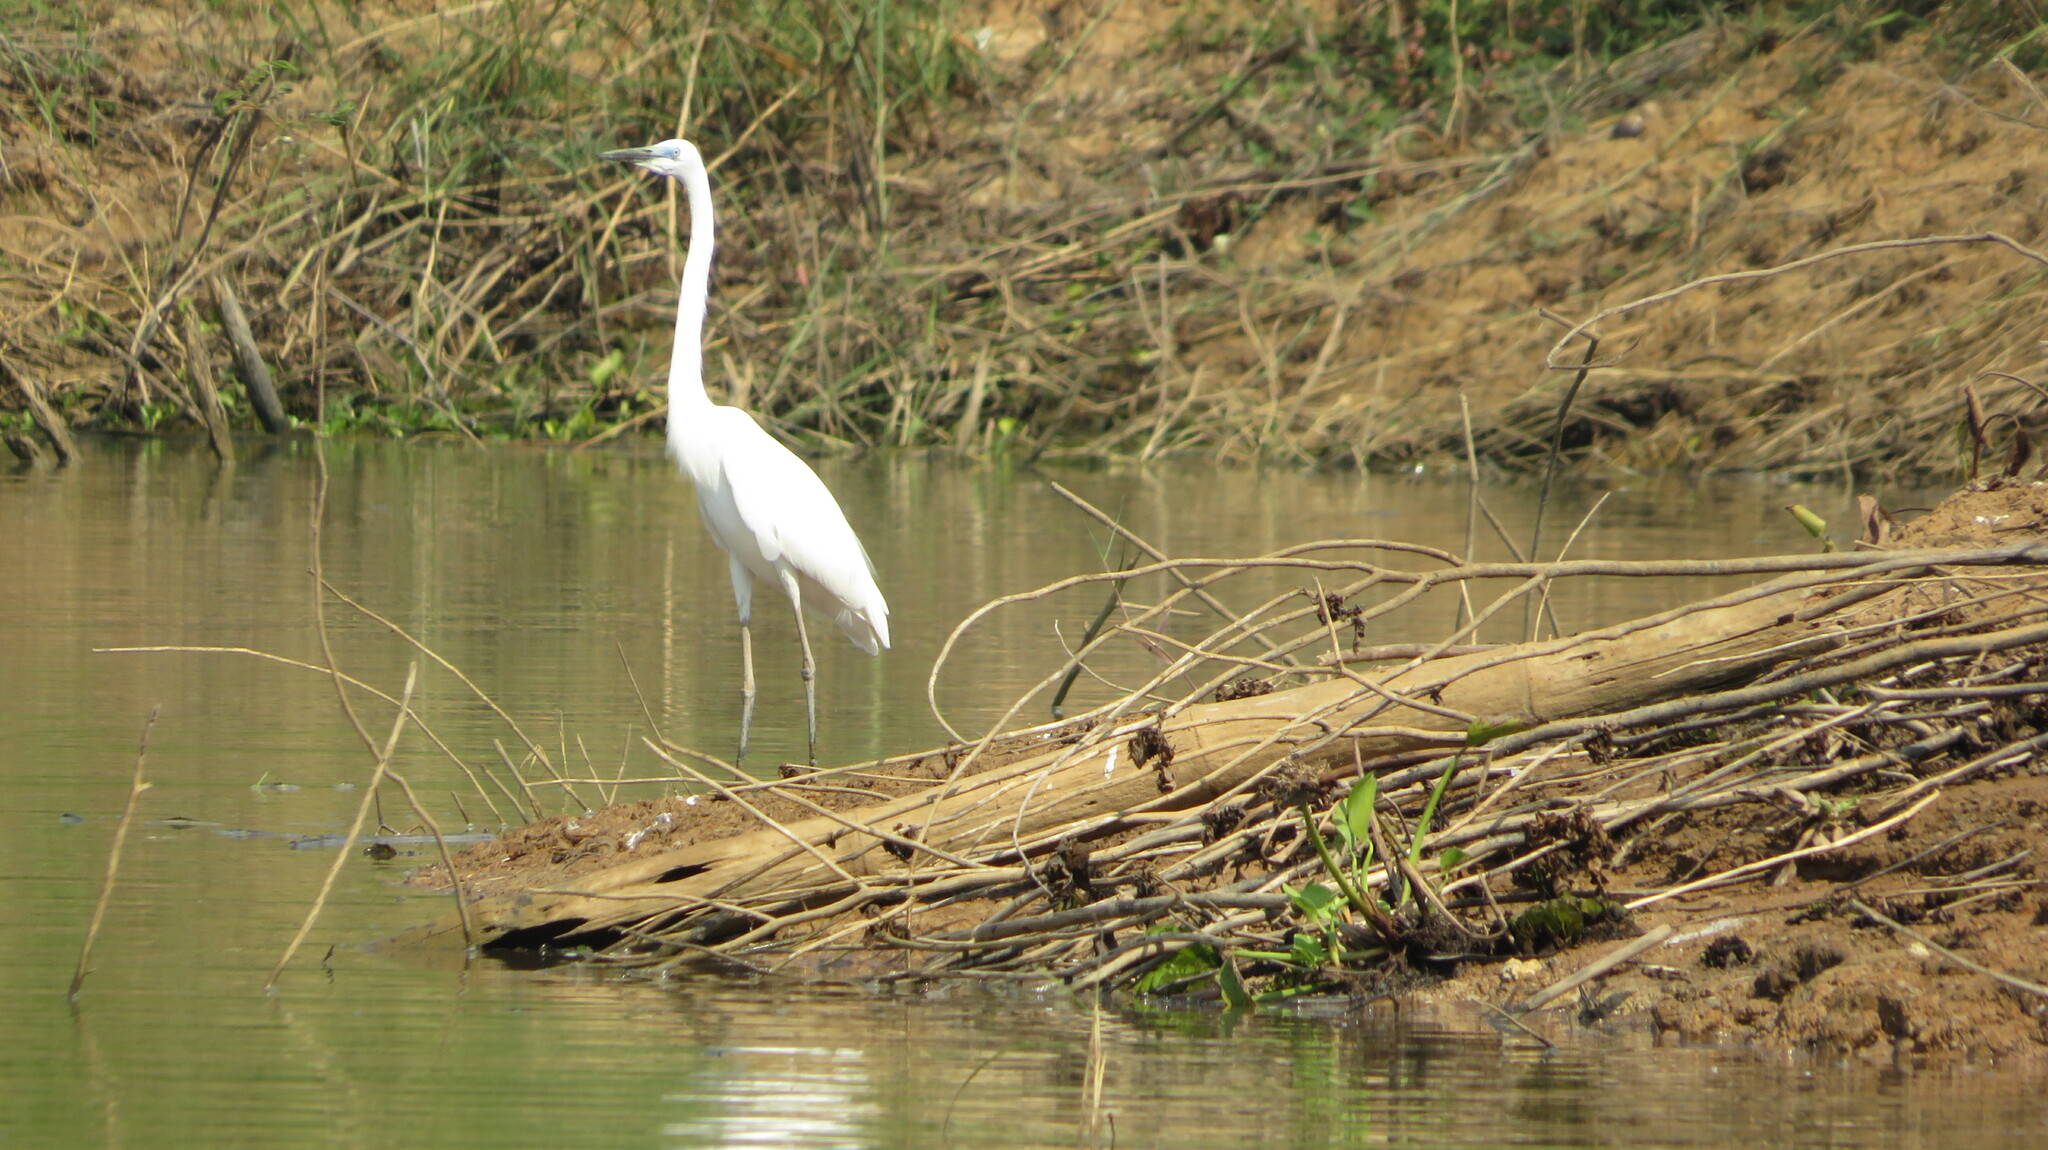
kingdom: Animalia
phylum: Chordata
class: Aves
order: Pelecaniformes
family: Ardeidae
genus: Ardea
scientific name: Ardea alba
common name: Great egret
